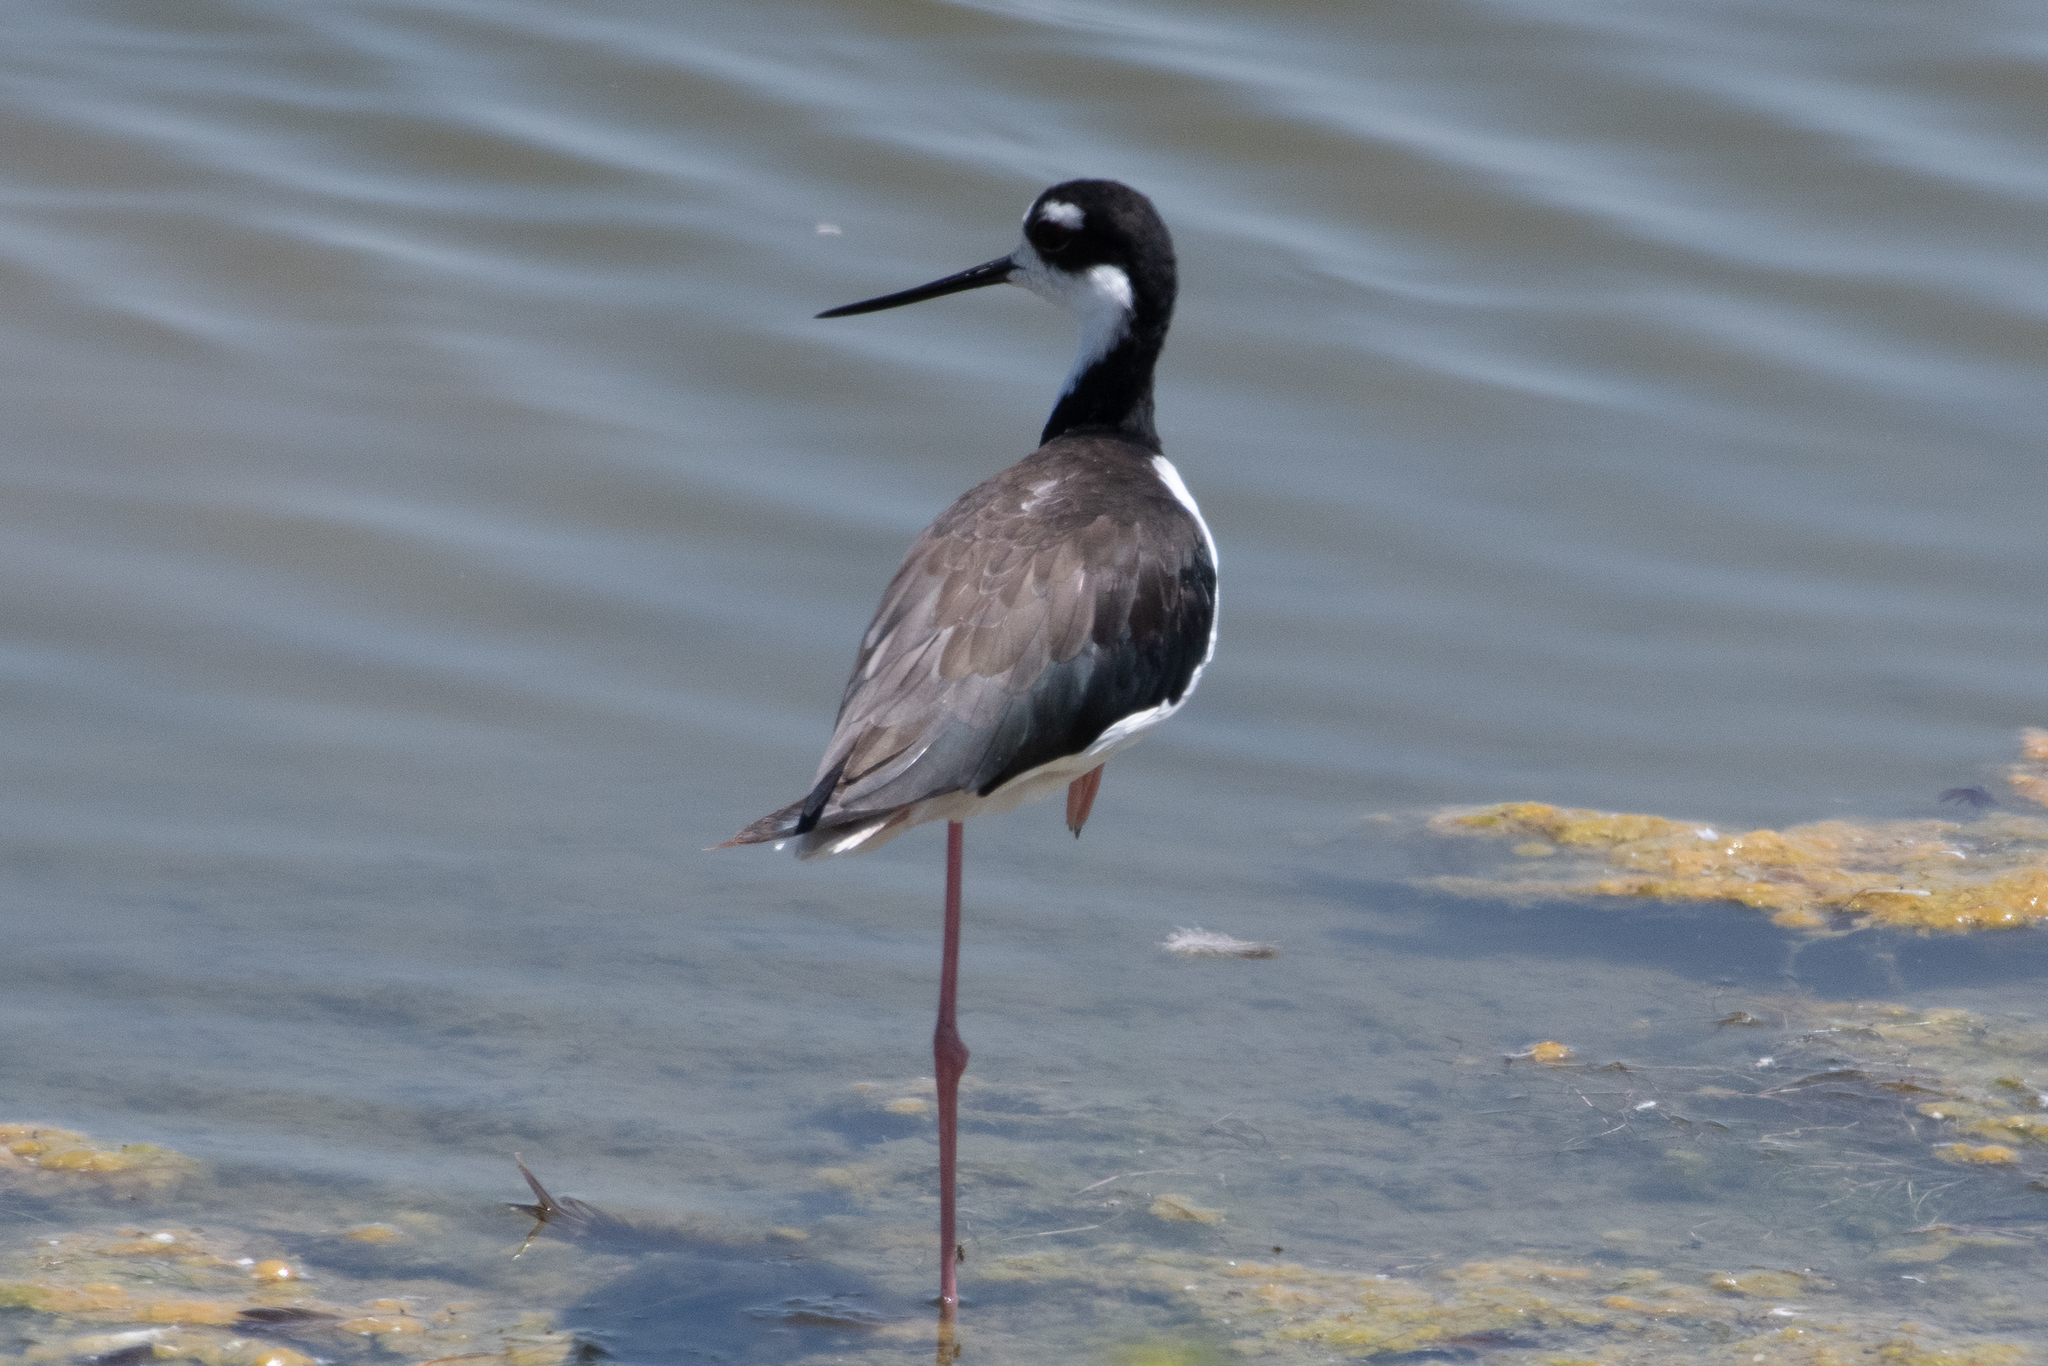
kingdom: Animalia
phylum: Chordata
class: Aves
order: Charadriiformes
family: Recurvirostridae
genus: Himantopus
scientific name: Himantopus mexicanus
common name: Black-necked stilt
